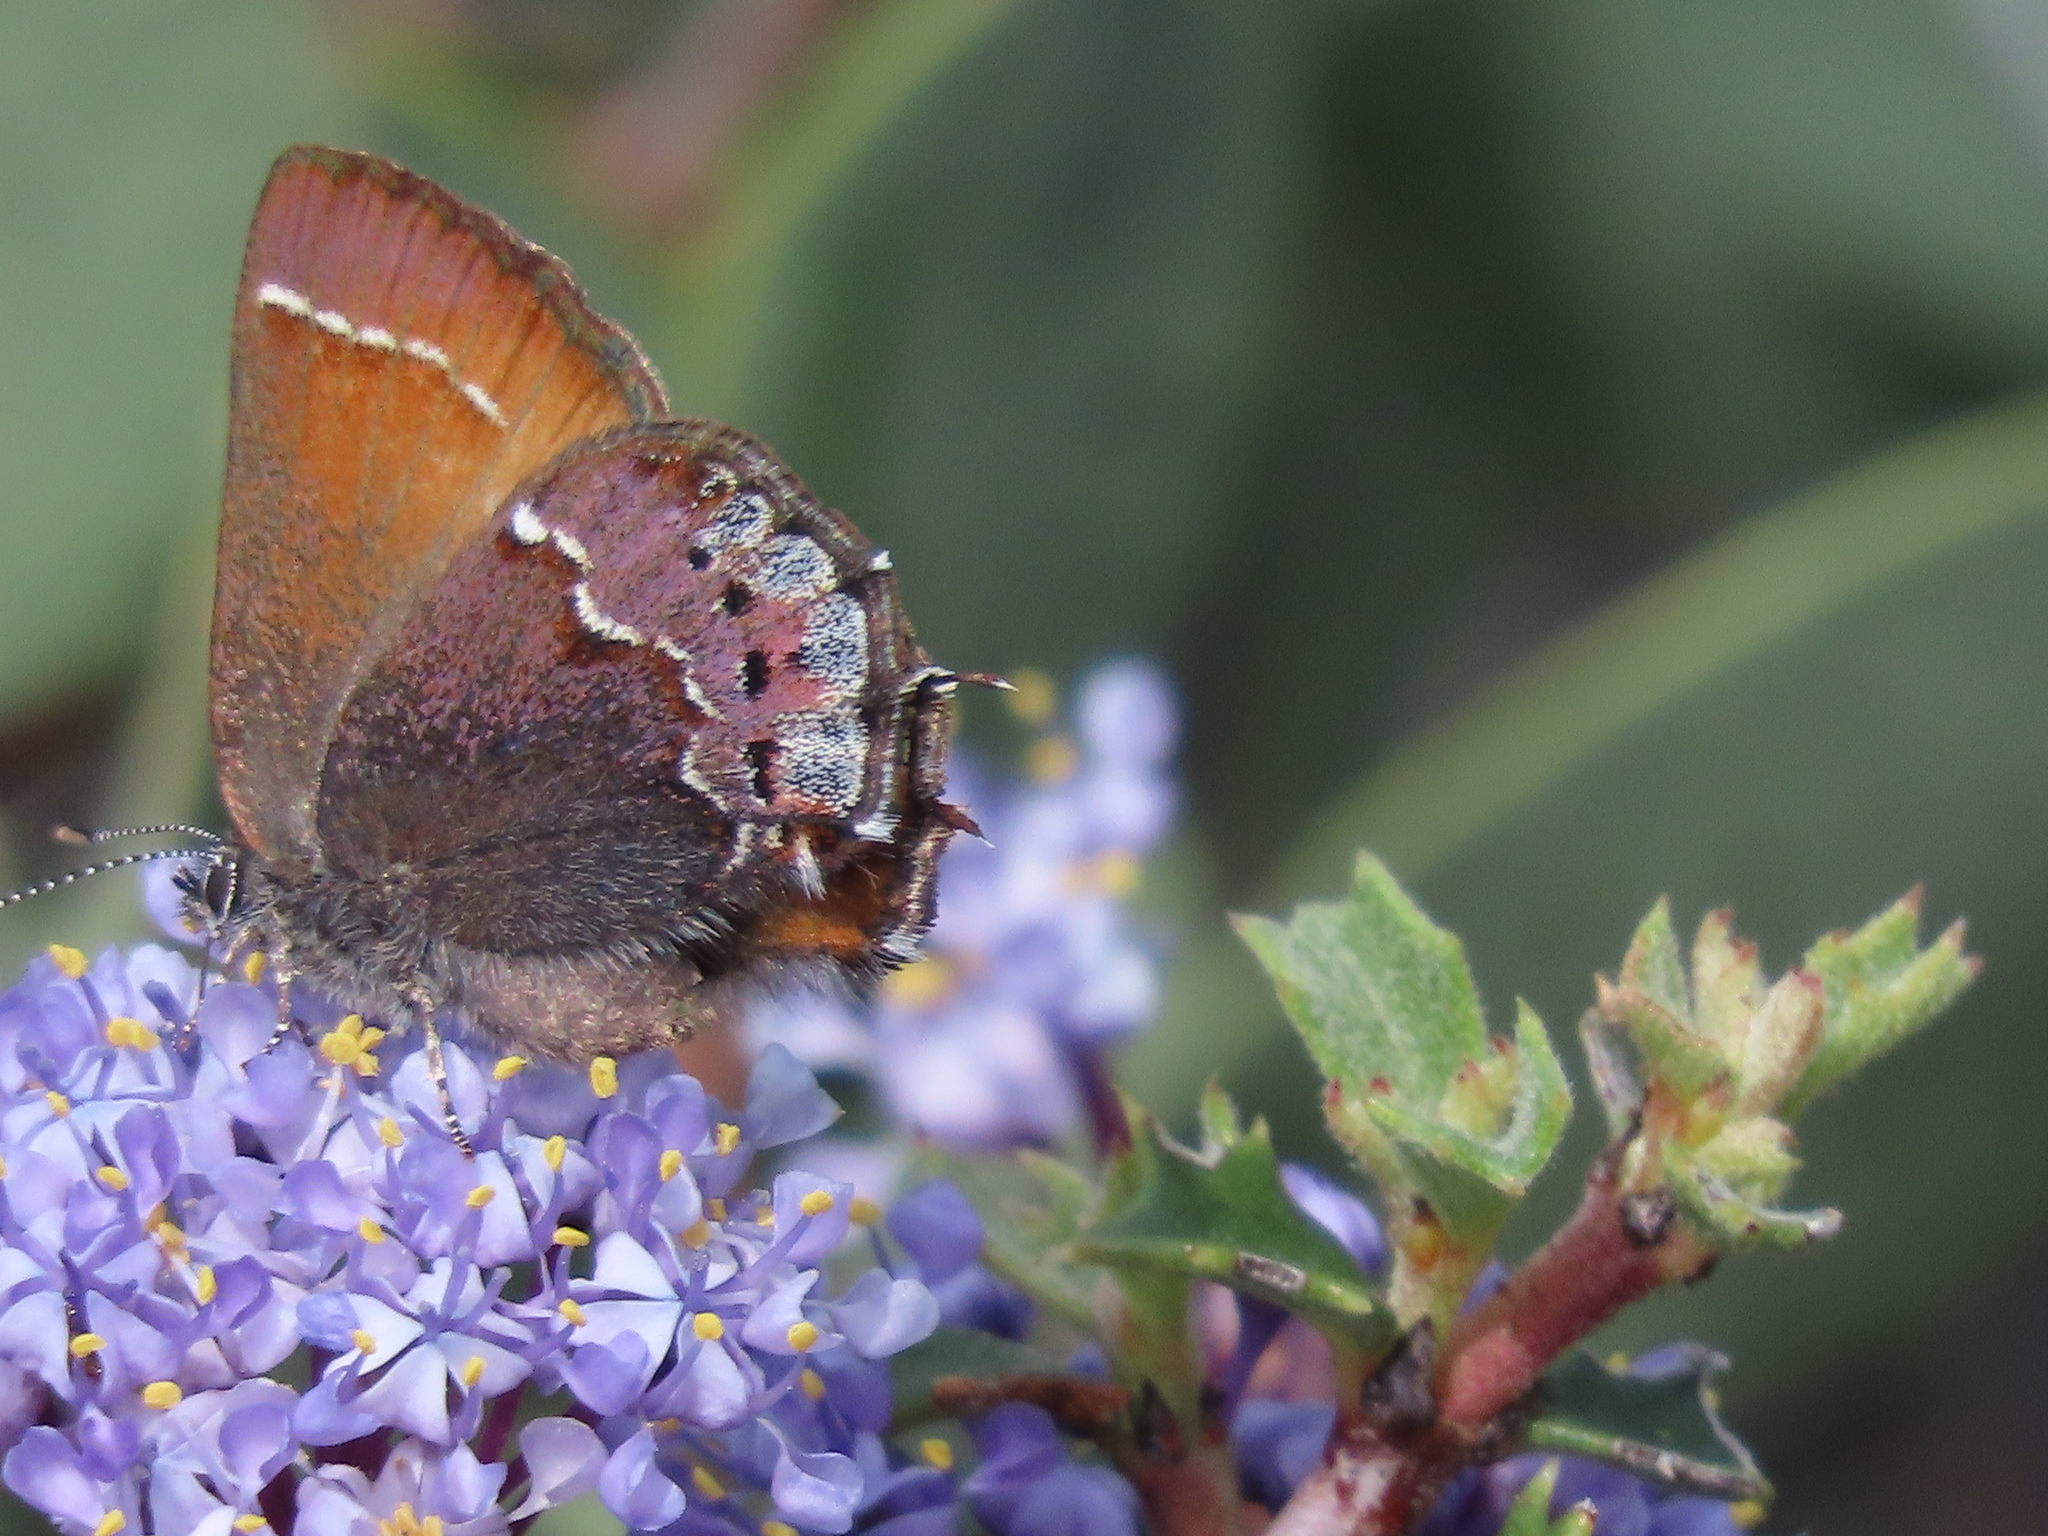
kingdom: Animalia
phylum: Arthropoda
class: Insecta
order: Lepidoptera
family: Lycaenidae
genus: Callophrys
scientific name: Callophrys muiri
